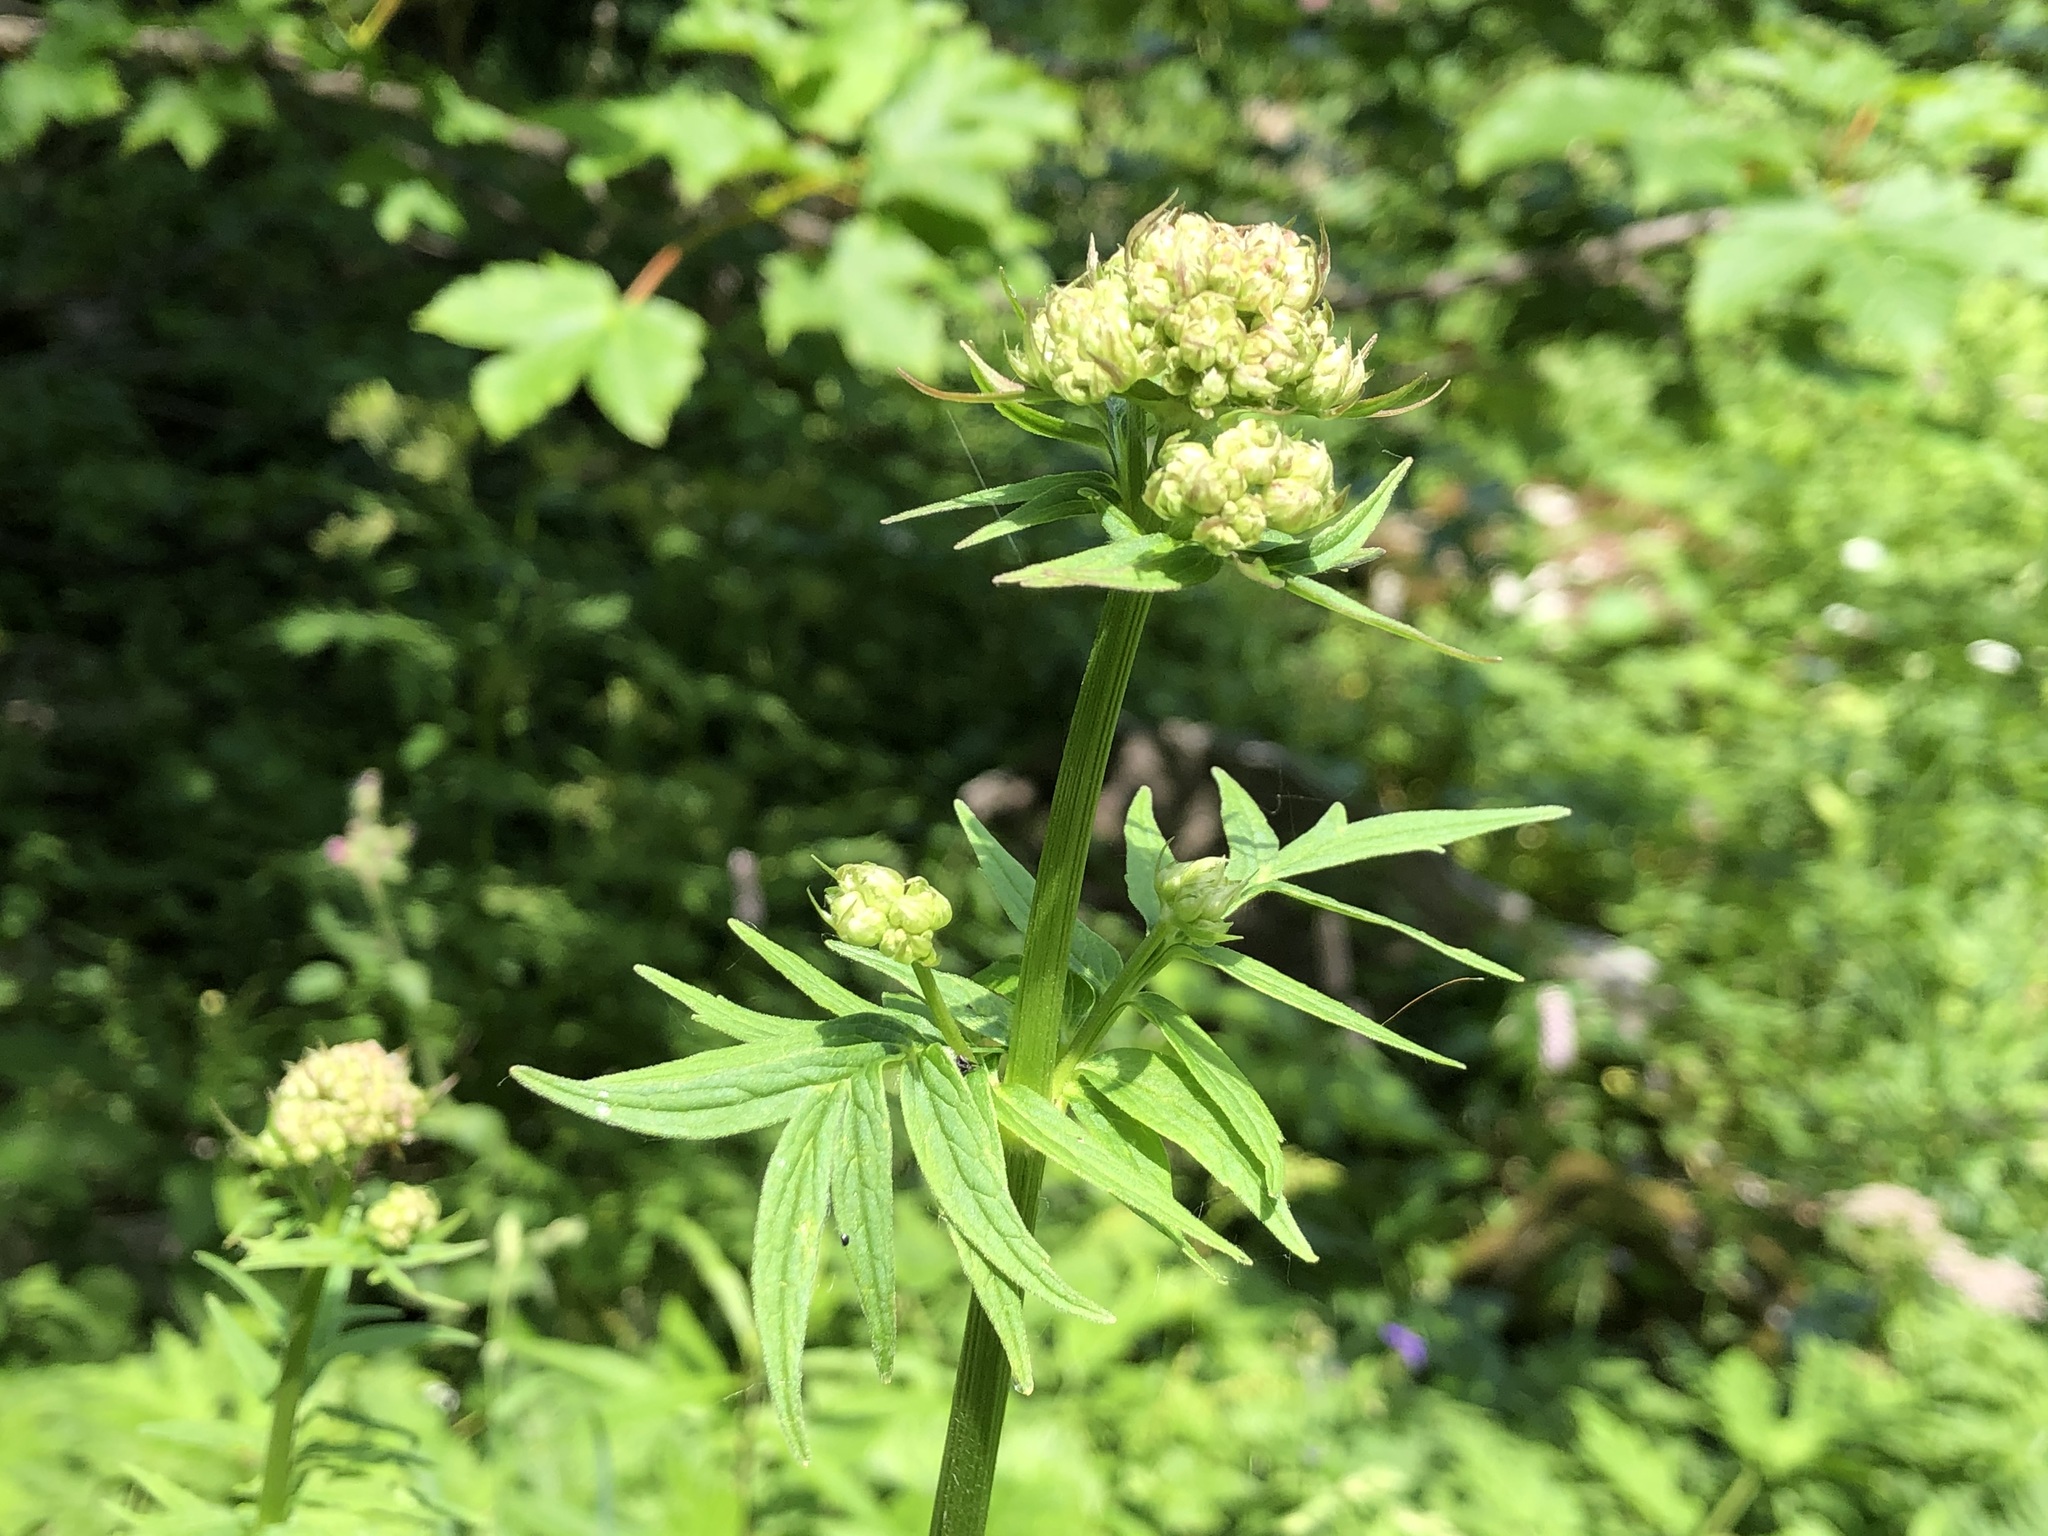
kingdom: Plantae
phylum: Tracheophyta
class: Magnoliopsida
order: Dipsacales
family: Caprifoliaceae
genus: Valeriana
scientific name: Valeriana officinalis
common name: Common valerian
